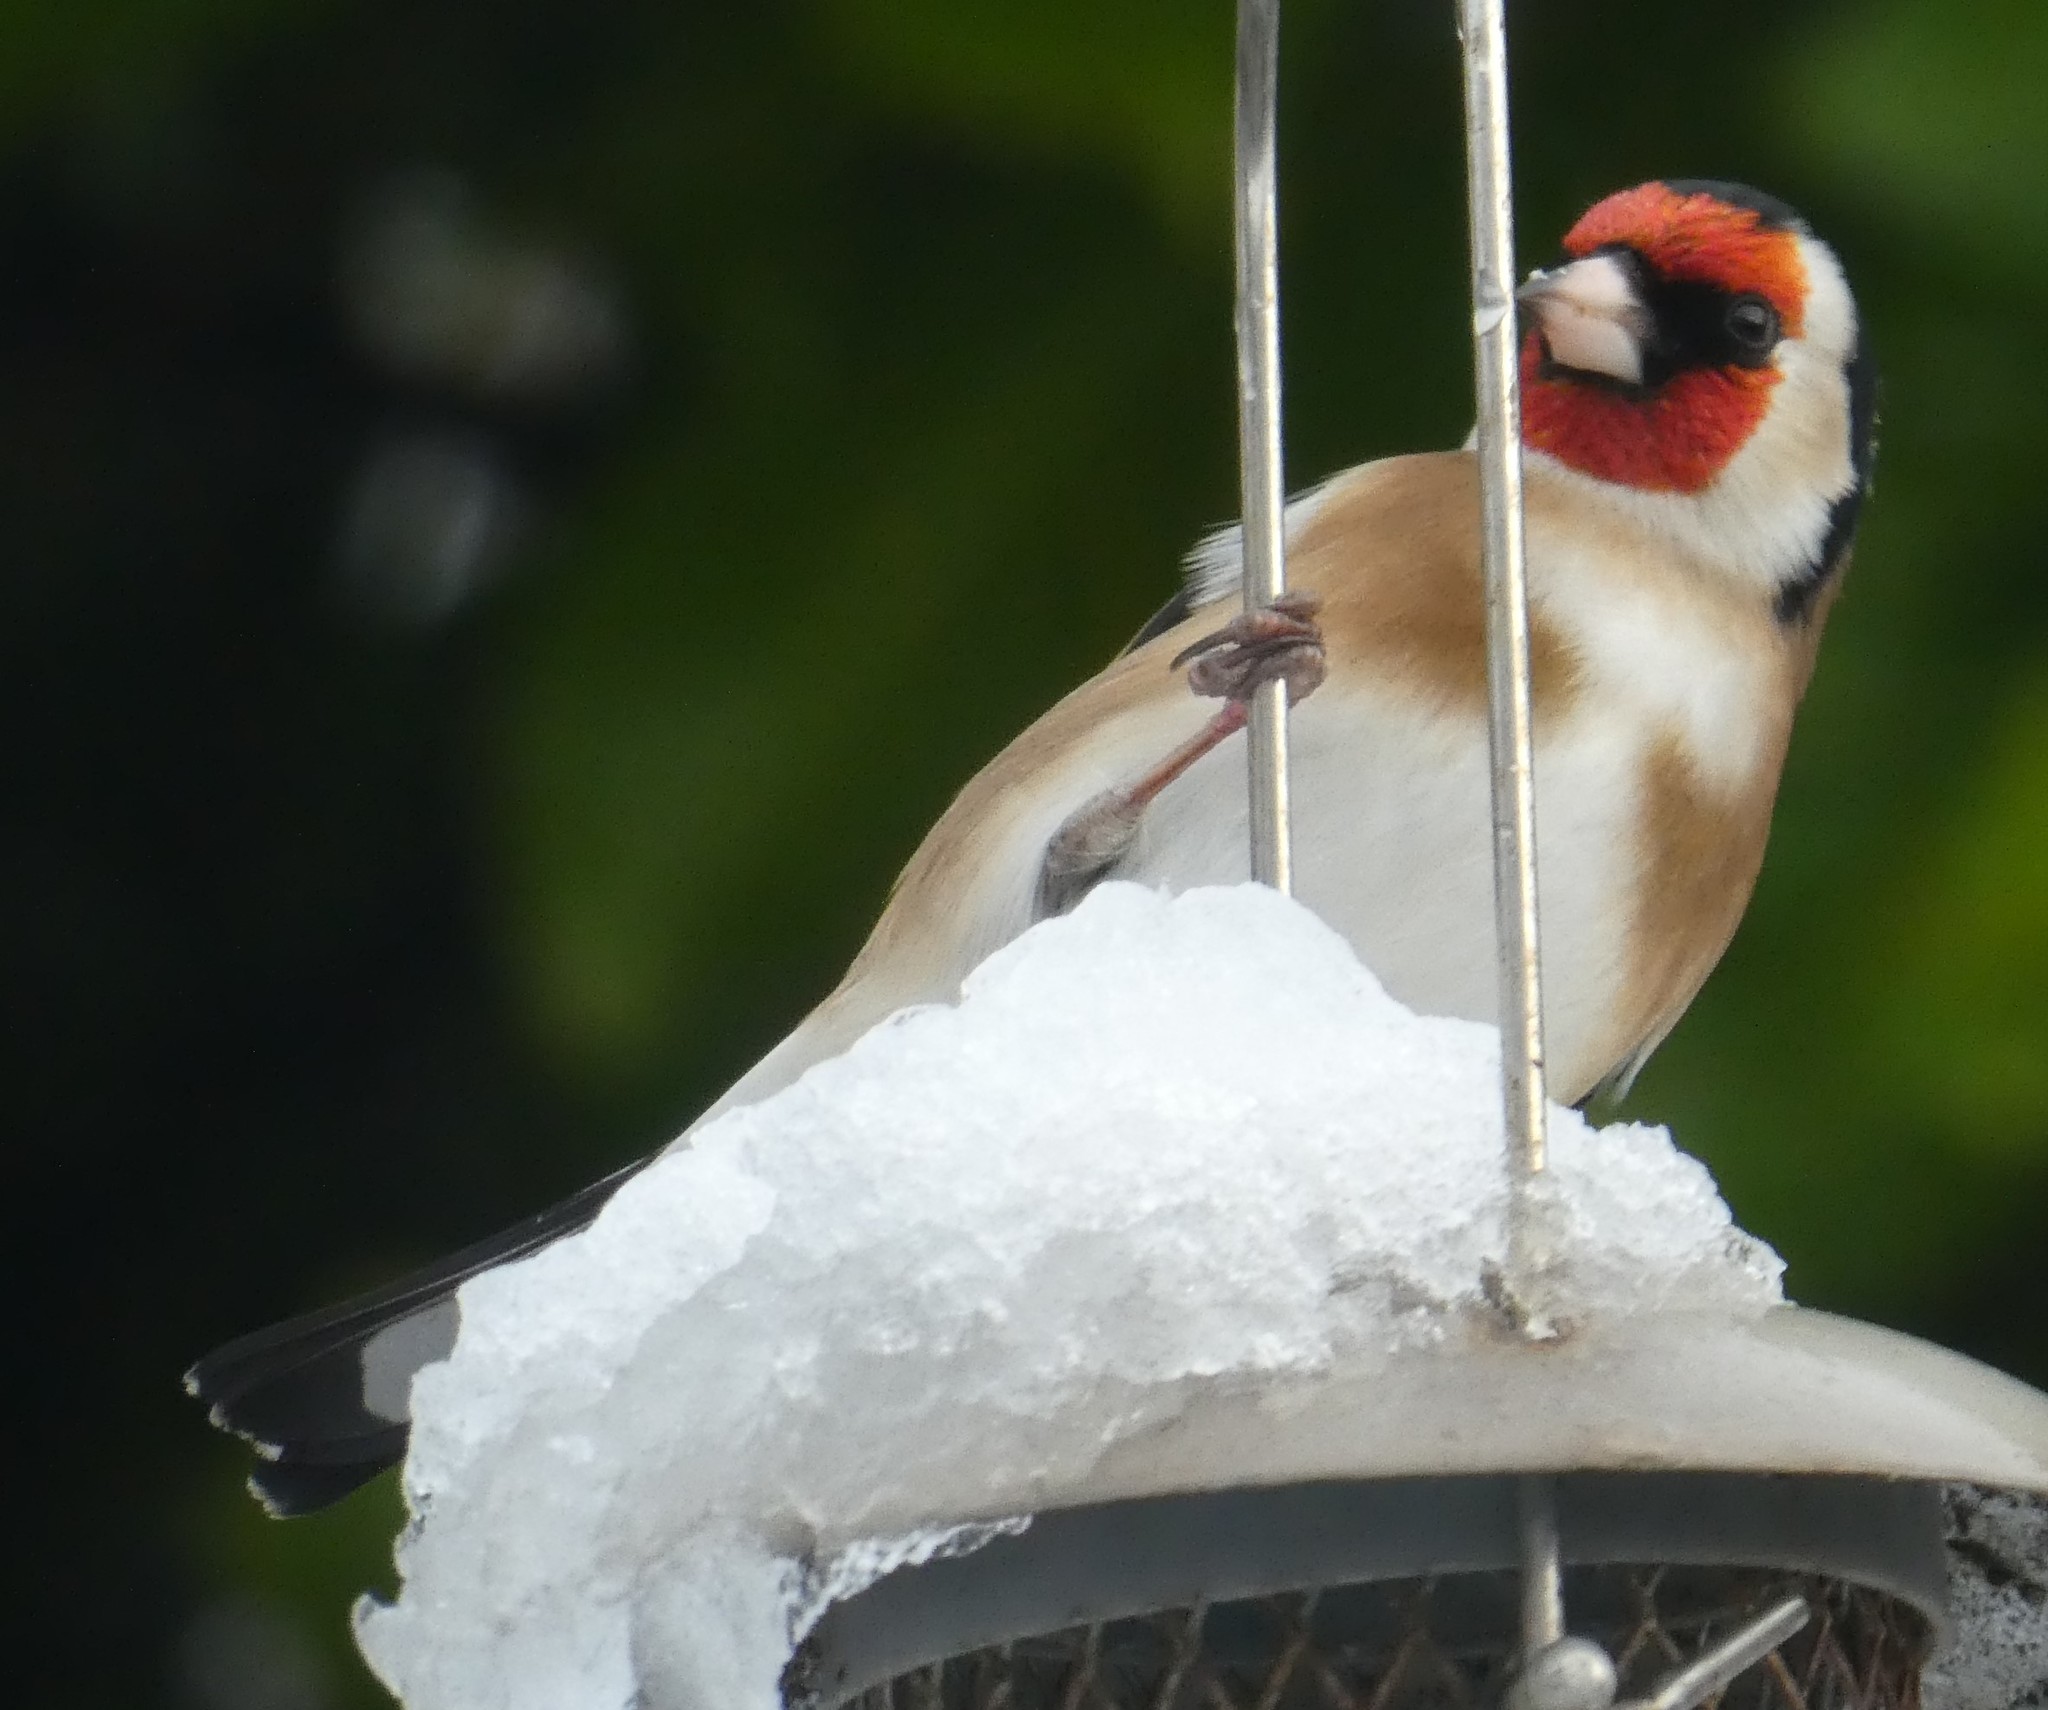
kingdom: Animalia
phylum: Chordata
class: Aves
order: Passeriformes
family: Fringillidae
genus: Carduelis
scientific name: Carduelis carduelis
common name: European goldfinch
